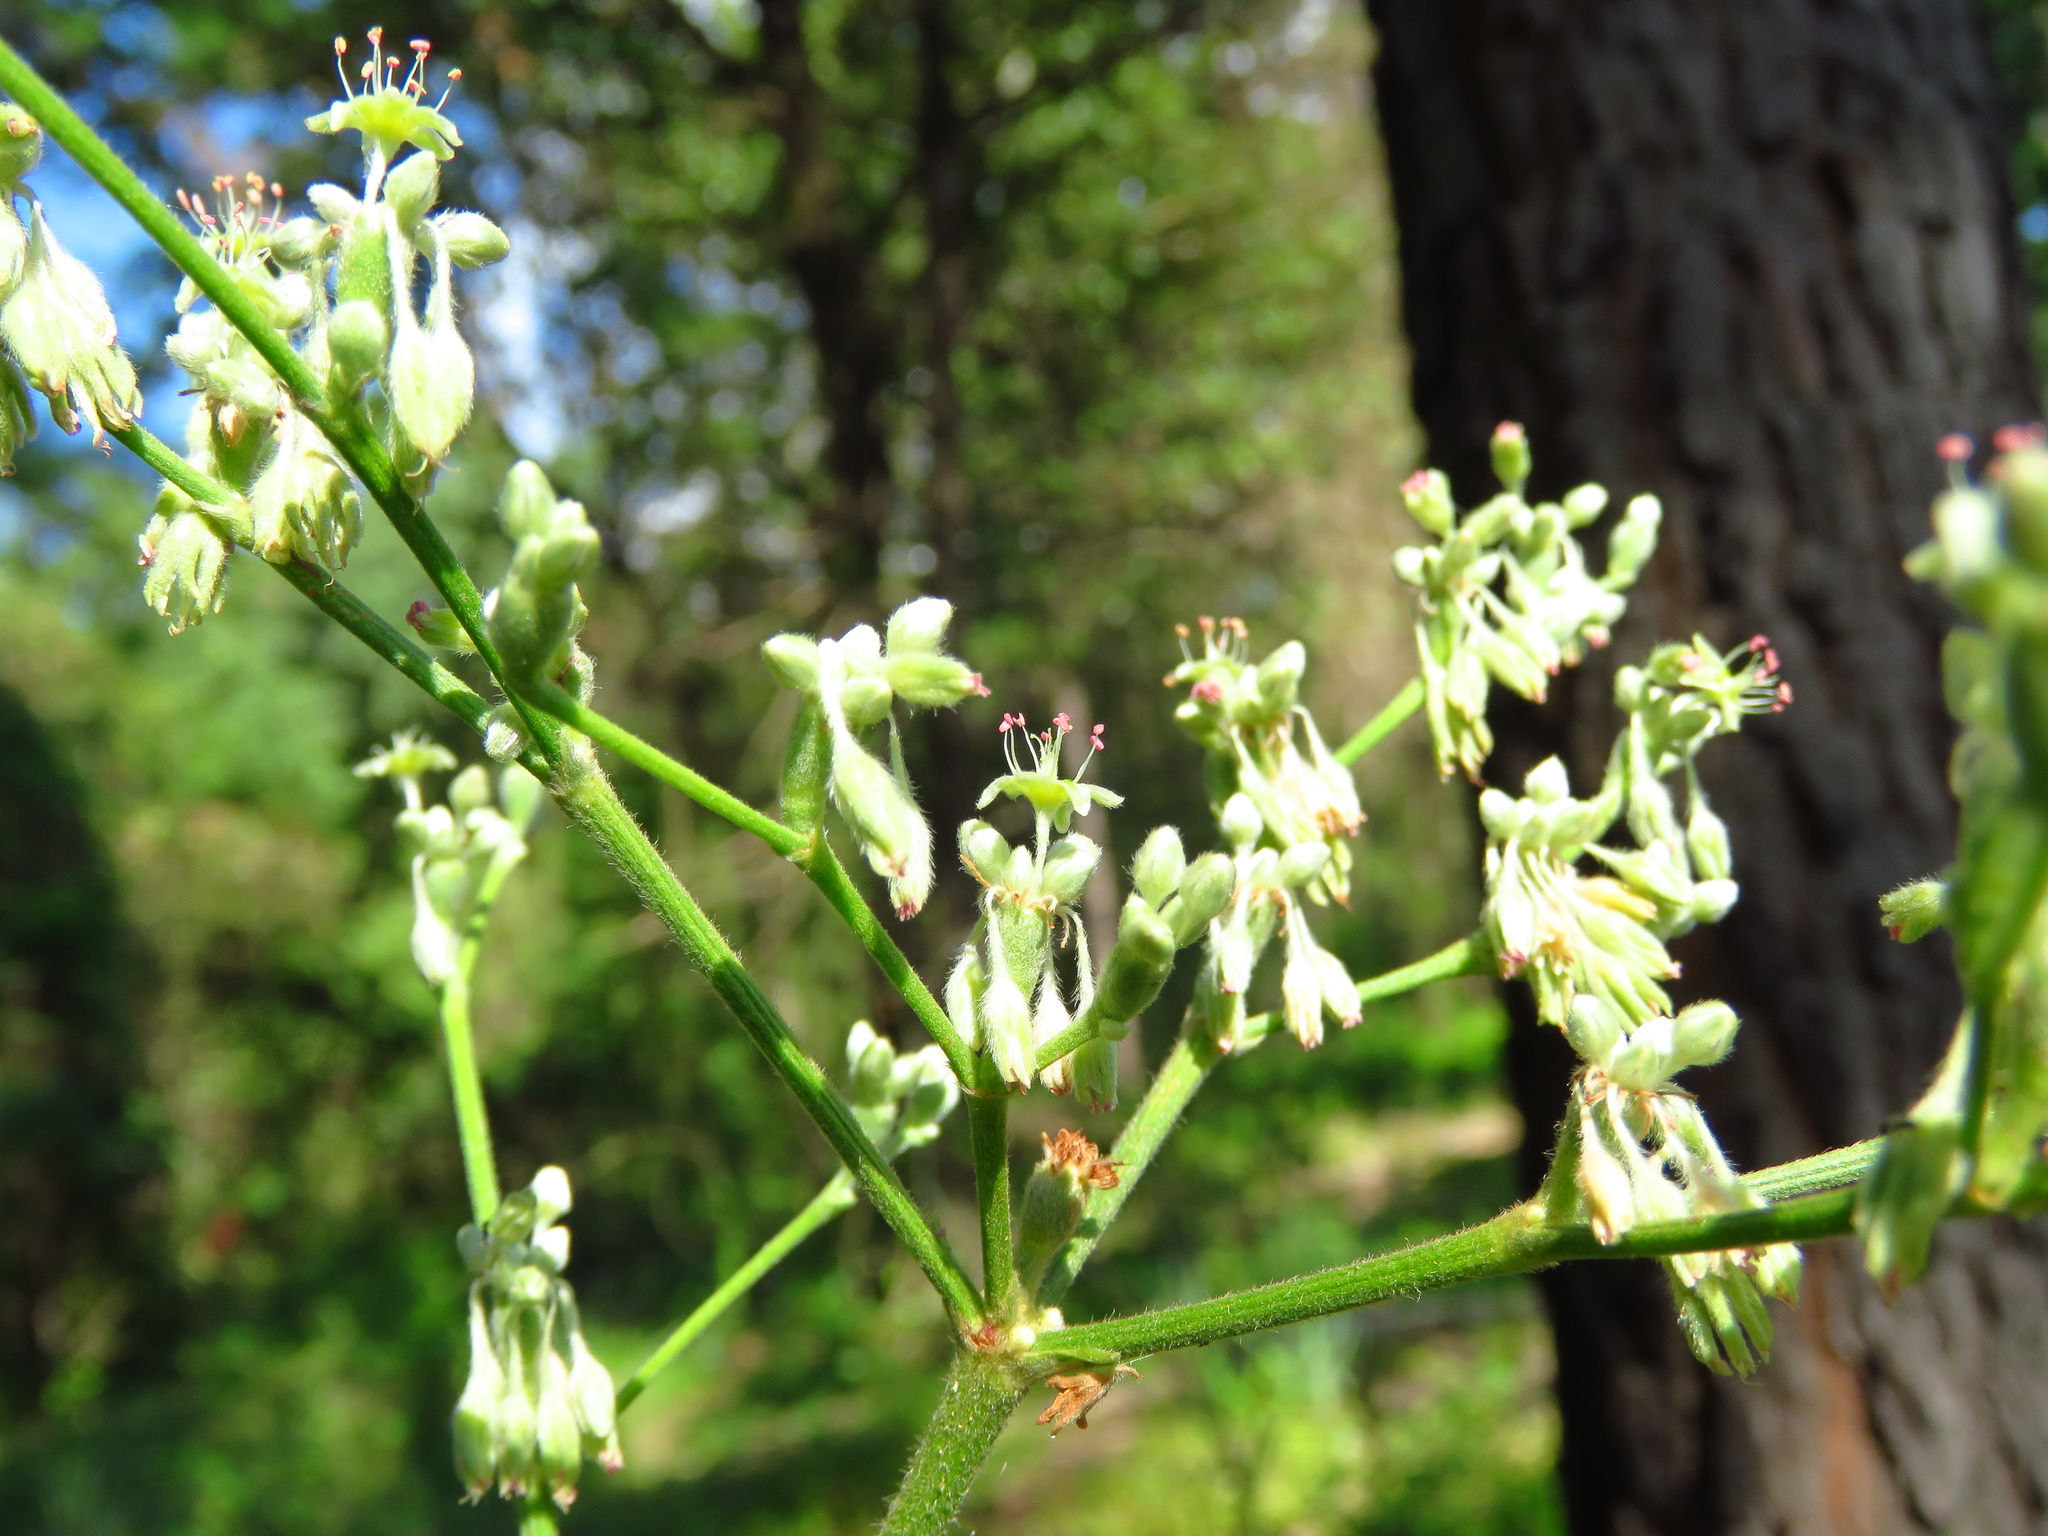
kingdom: Plantae
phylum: Tracheophyta
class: Magnoliopsida
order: Caryophyllales
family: Polygonaceae
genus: Eriogonum
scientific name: Eriogonum longifolium
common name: Longleaf wild buckwheat
